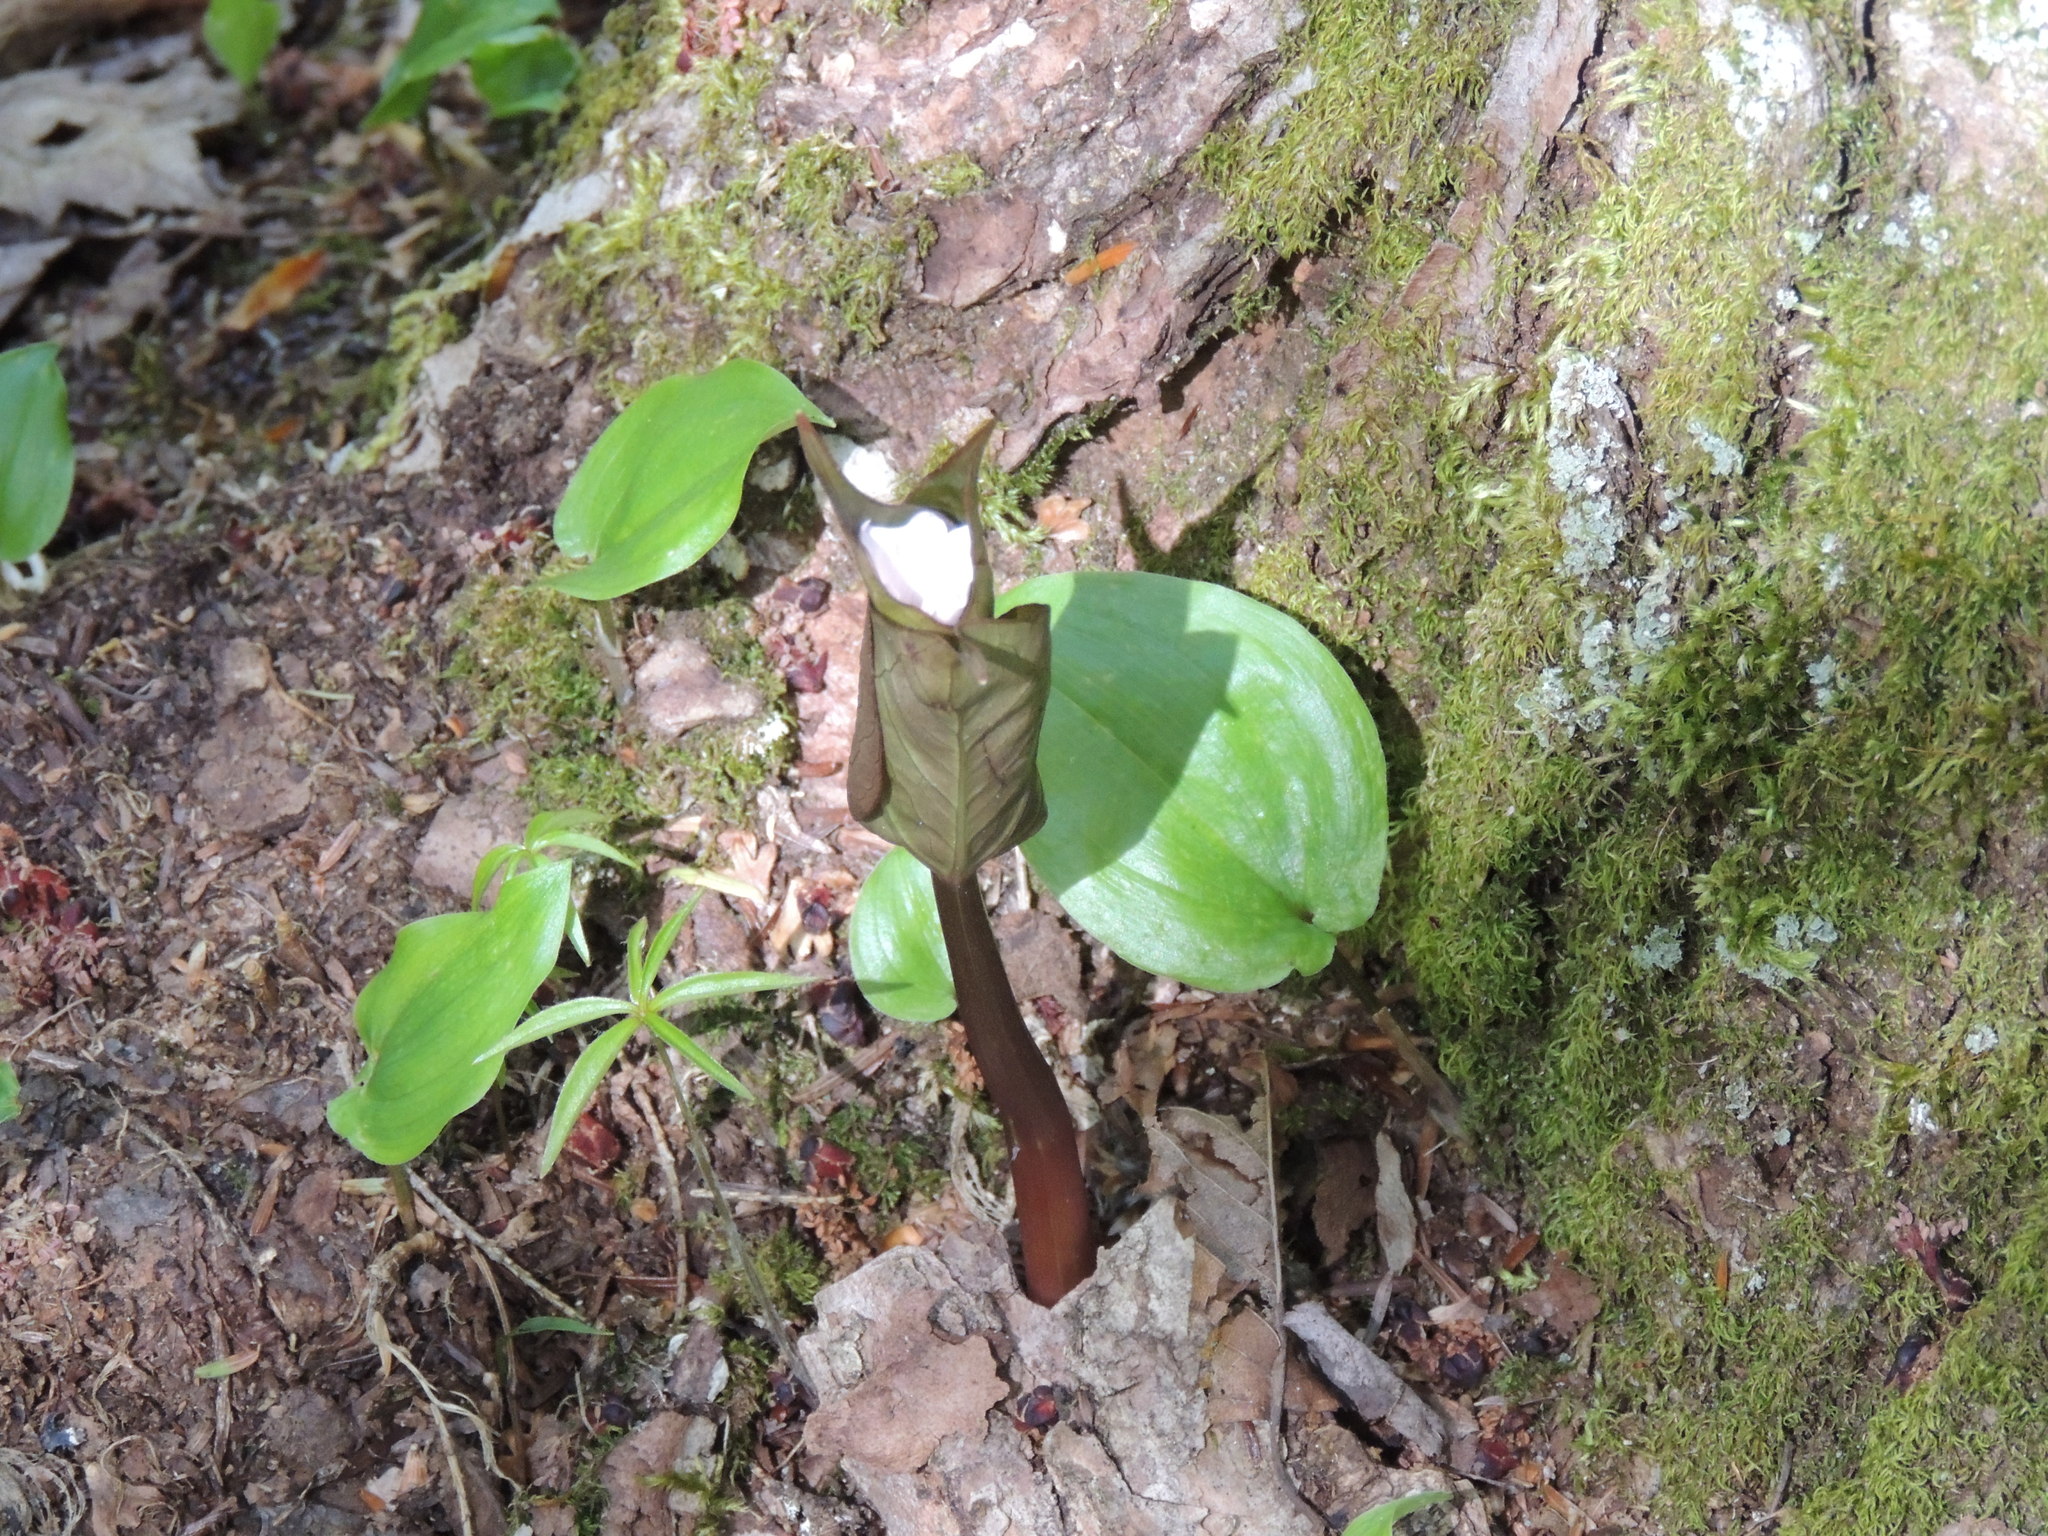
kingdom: Plantae
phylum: Tracheophyta
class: Liliopsida
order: Liliales
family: Melanthiaceae
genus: Trillium
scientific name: Trillium undulatum
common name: Paint trillium
